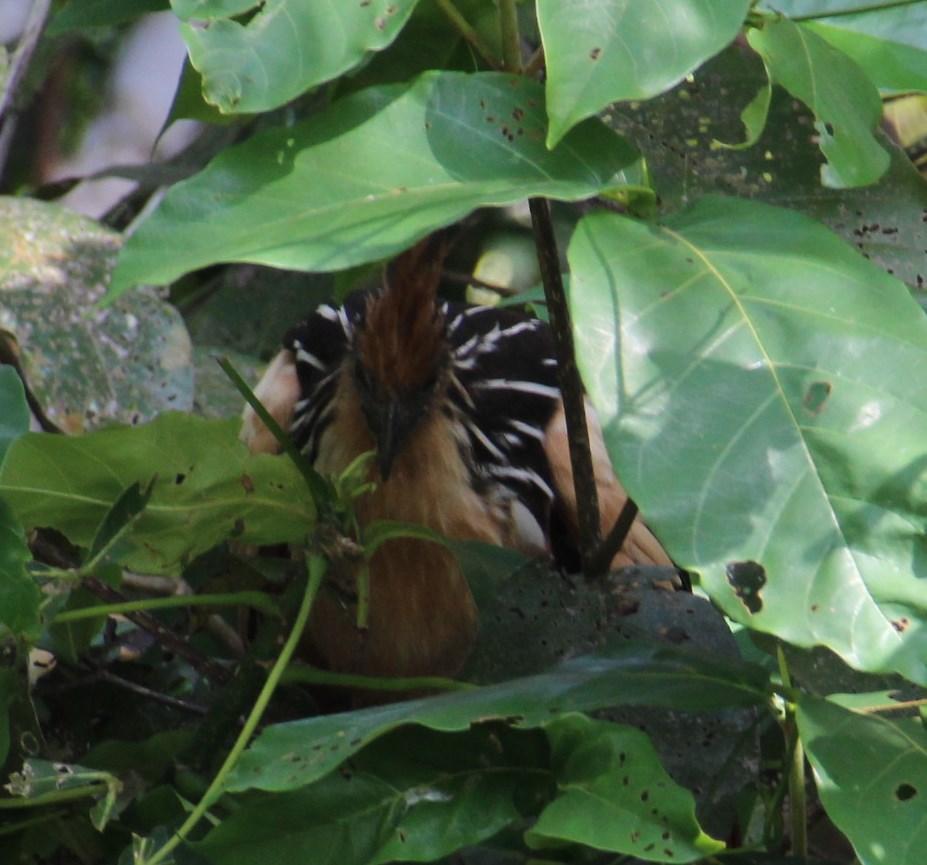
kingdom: Animalia
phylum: Chordata
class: Aves
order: Opisthocomiformes
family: Opisthocomidae
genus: Opisthocomus
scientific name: Opisthocomus hoazin
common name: Hoatzin
